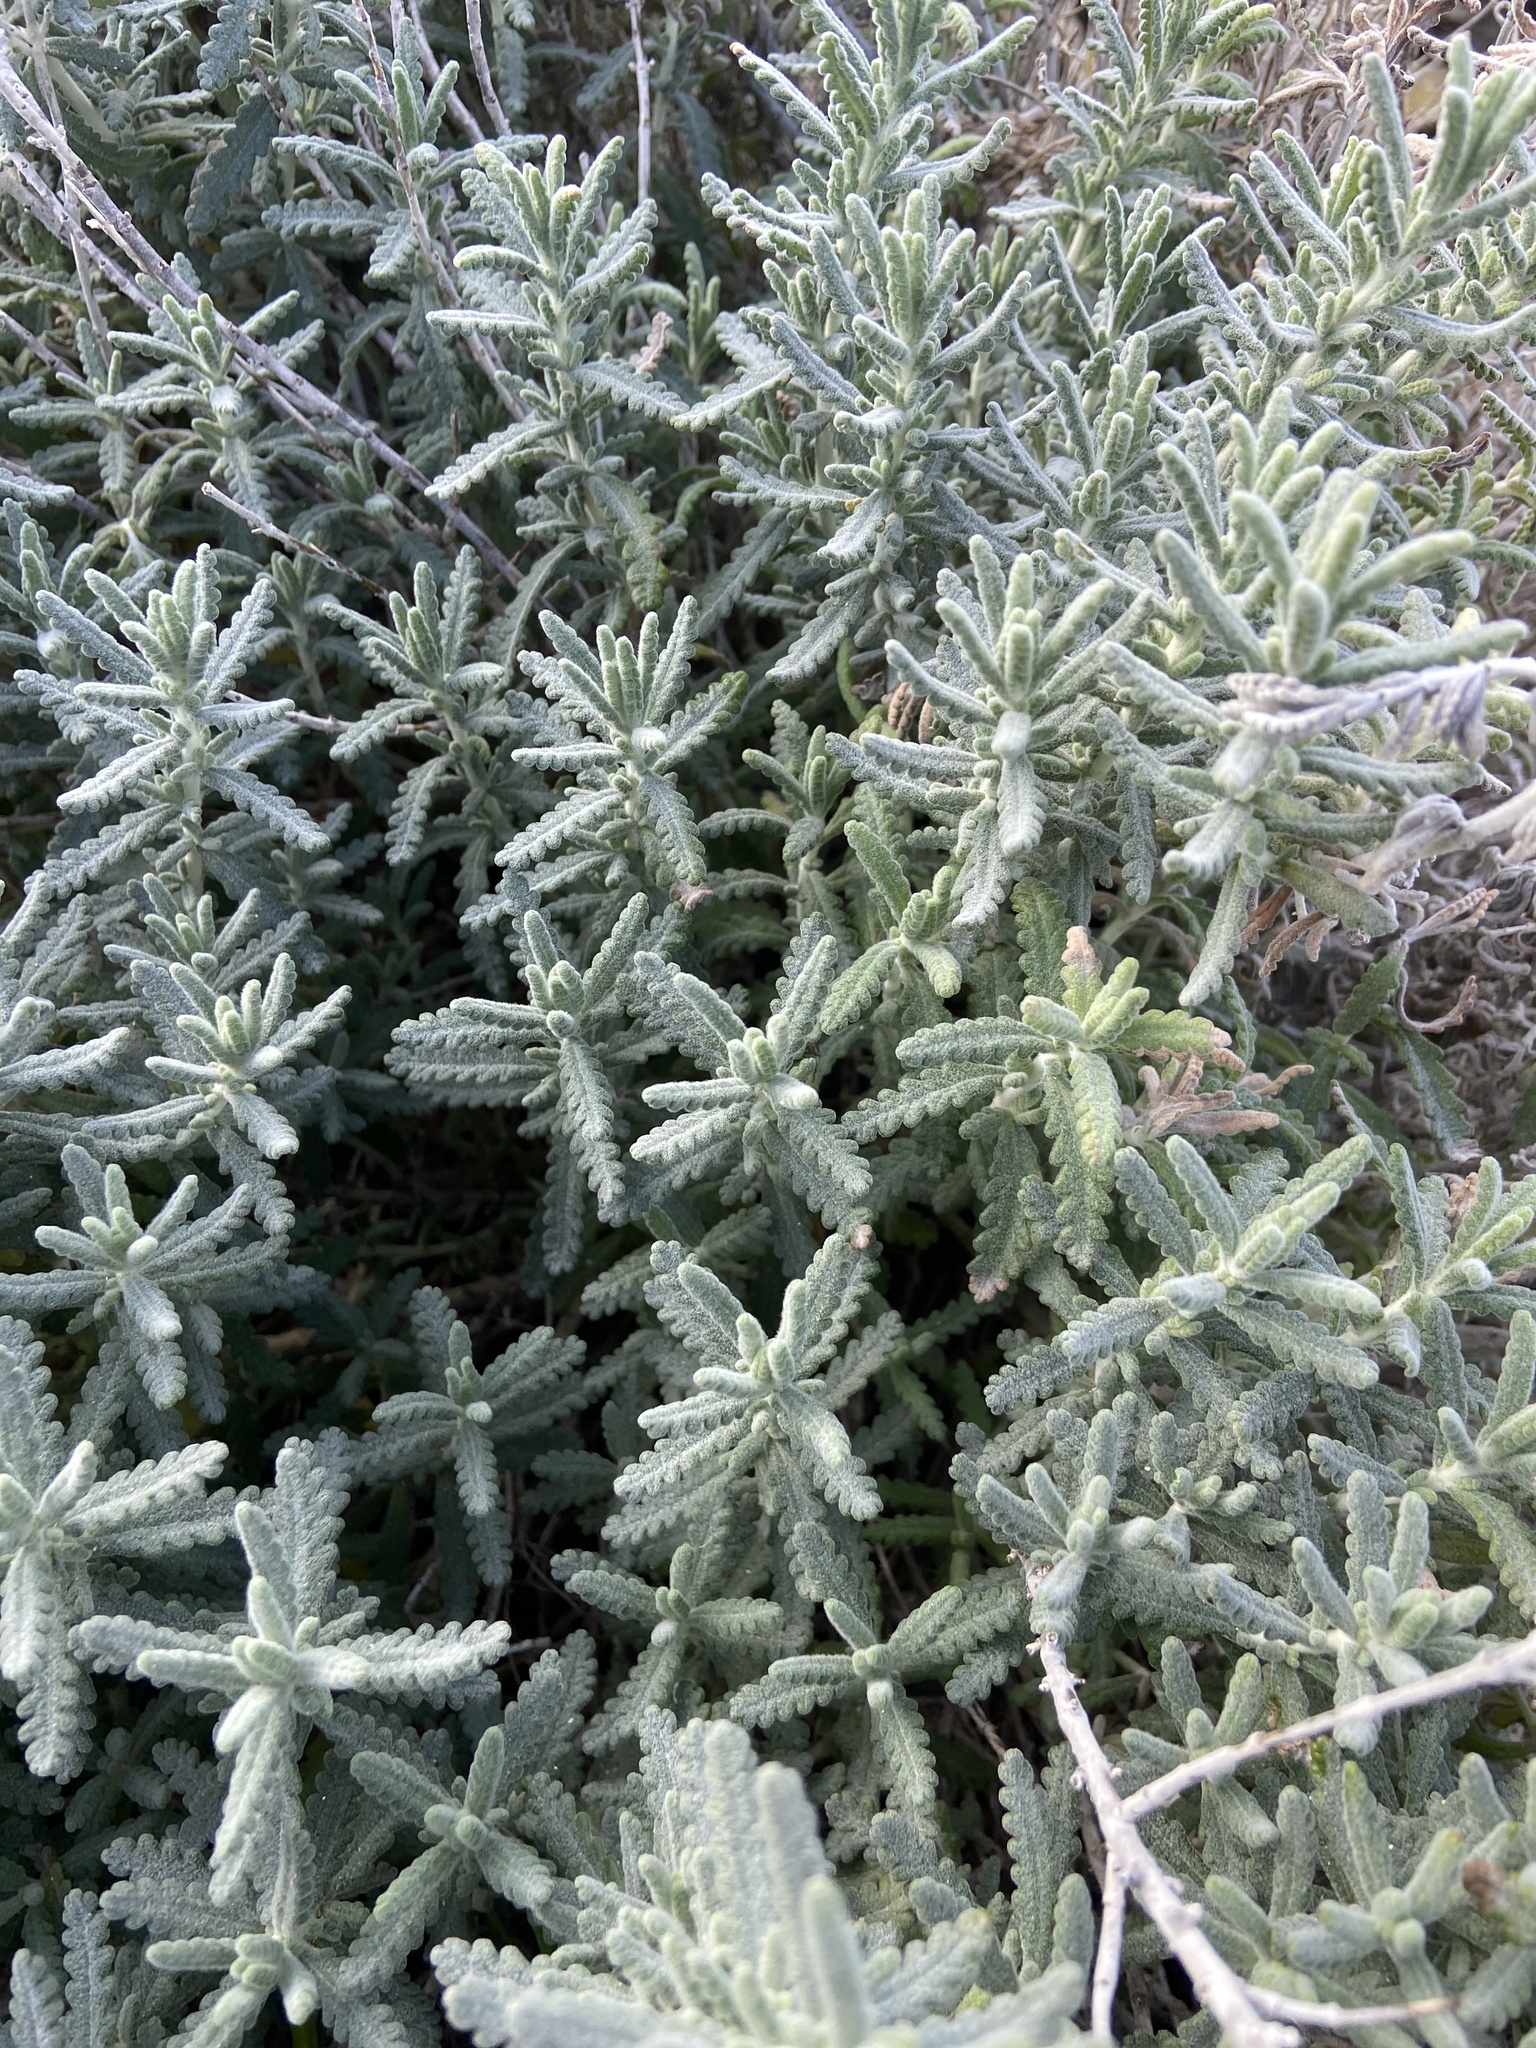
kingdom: Plantae
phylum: Tracheophyta
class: Magnoliopsida
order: Lamiales
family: Lamiaceae
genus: Teucrium
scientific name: Teucrium dunense
